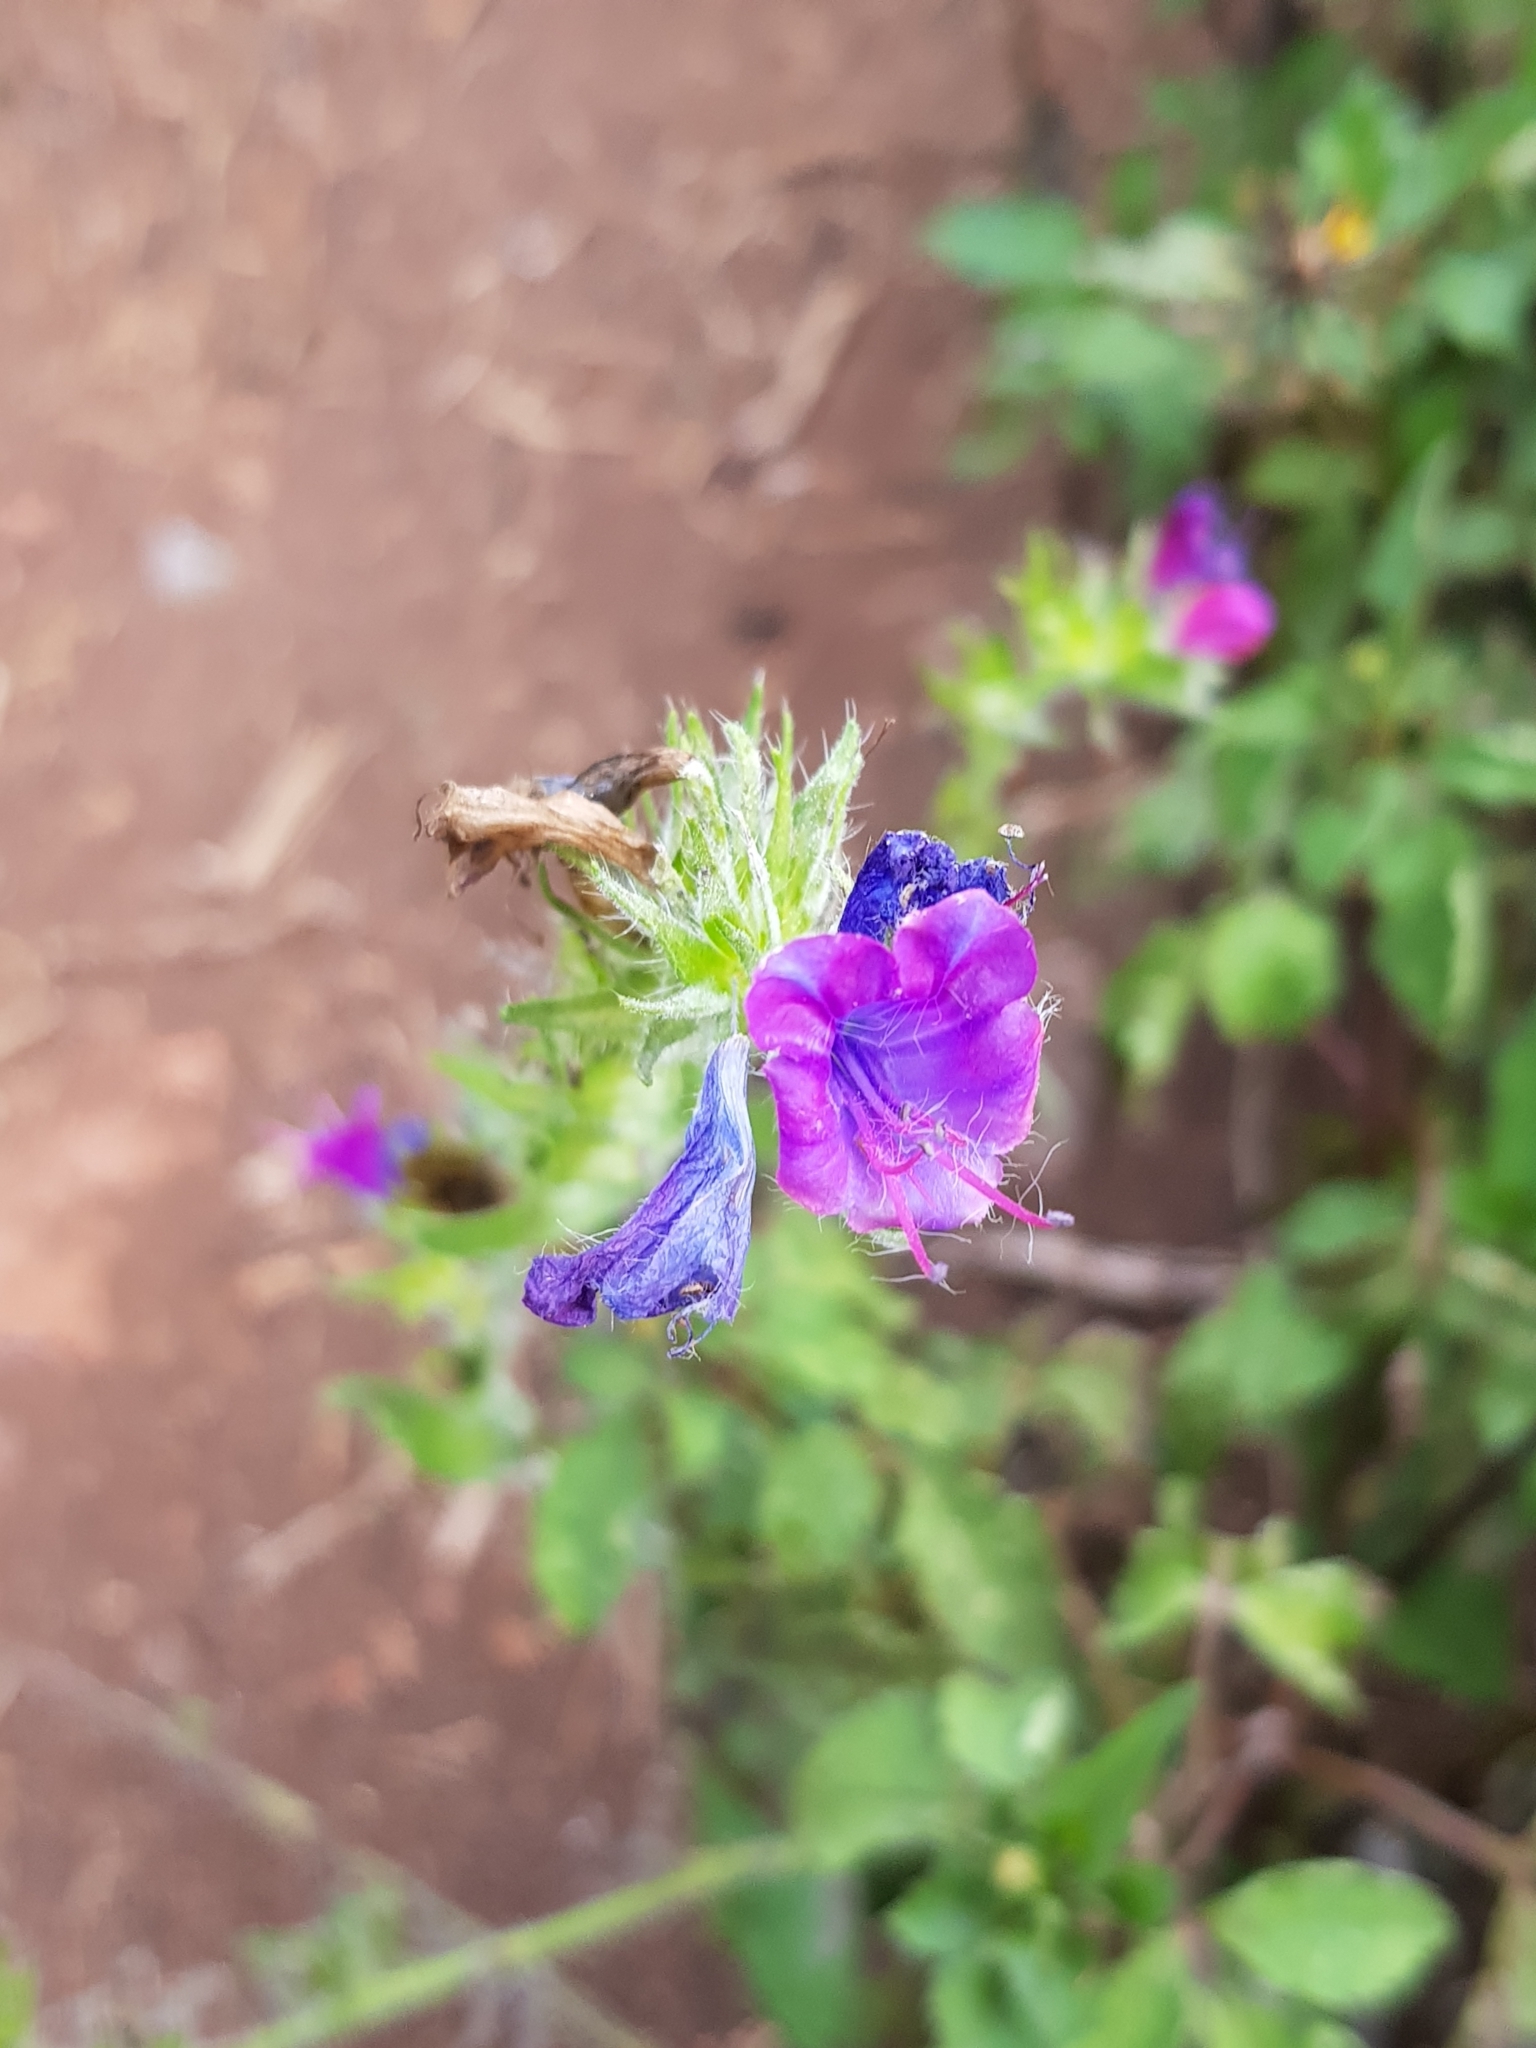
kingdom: Plantae
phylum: Tracheophyta
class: Magnoliopsida
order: Boraginales
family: Boraginaceae
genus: Echium
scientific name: Echium plantagineum
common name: Purple viper's-bugloss
